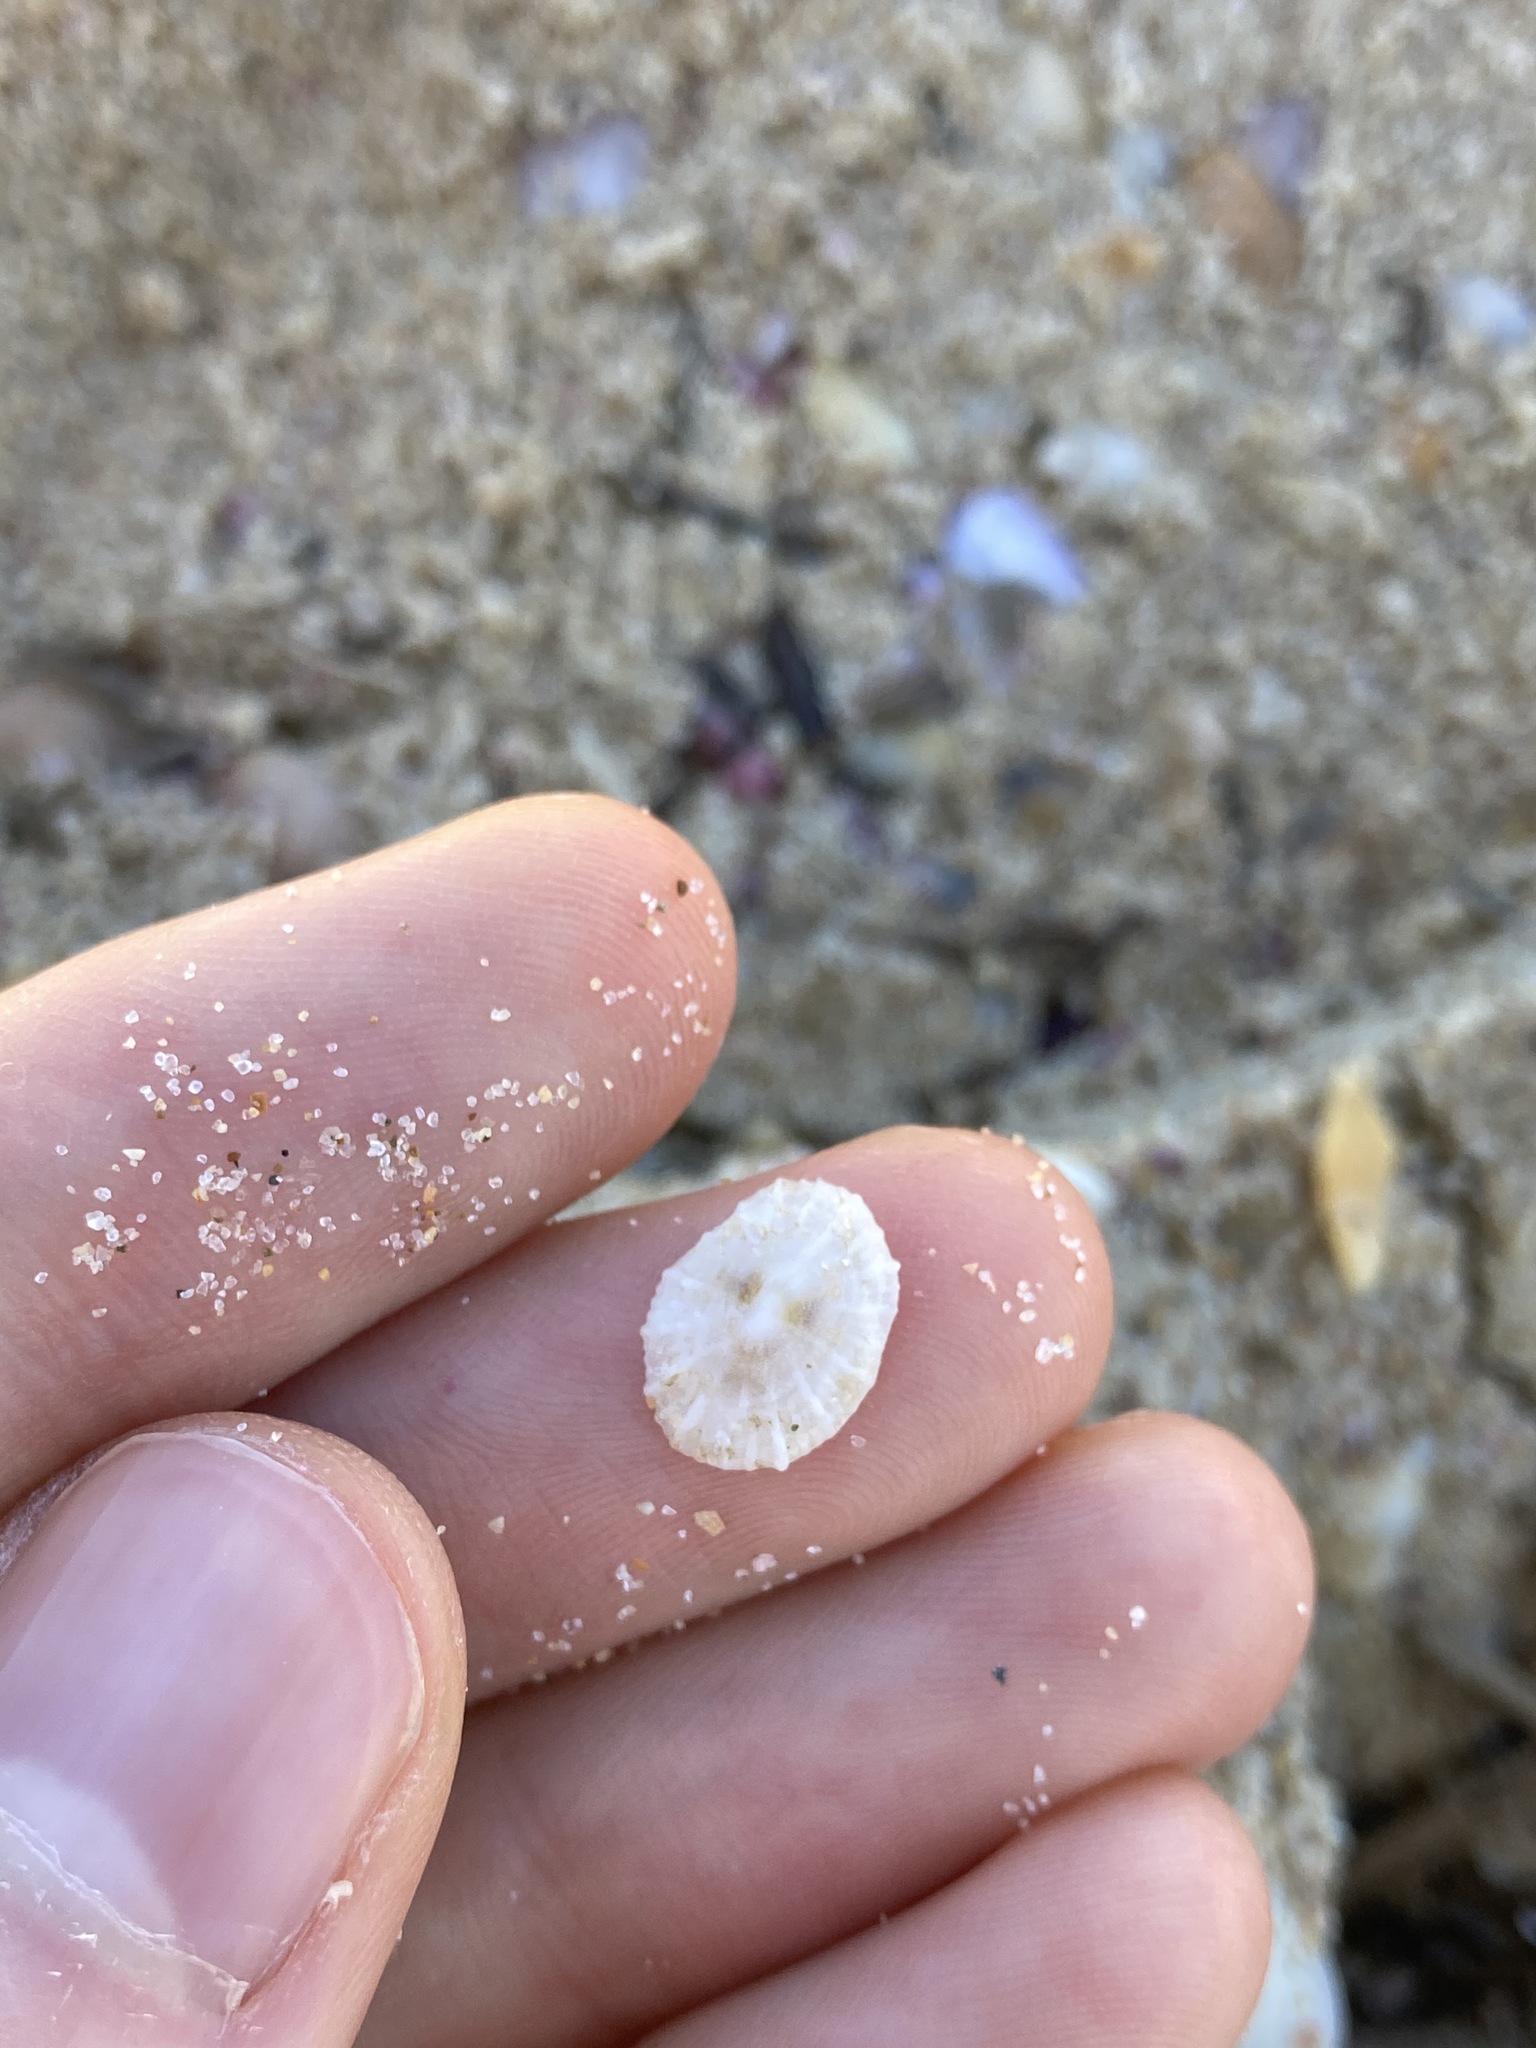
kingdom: Animalia
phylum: Mollusca
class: Gastropoda
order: Lepetellida
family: Fissurellidae
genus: Montfortula
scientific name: Montfortula rugosa
